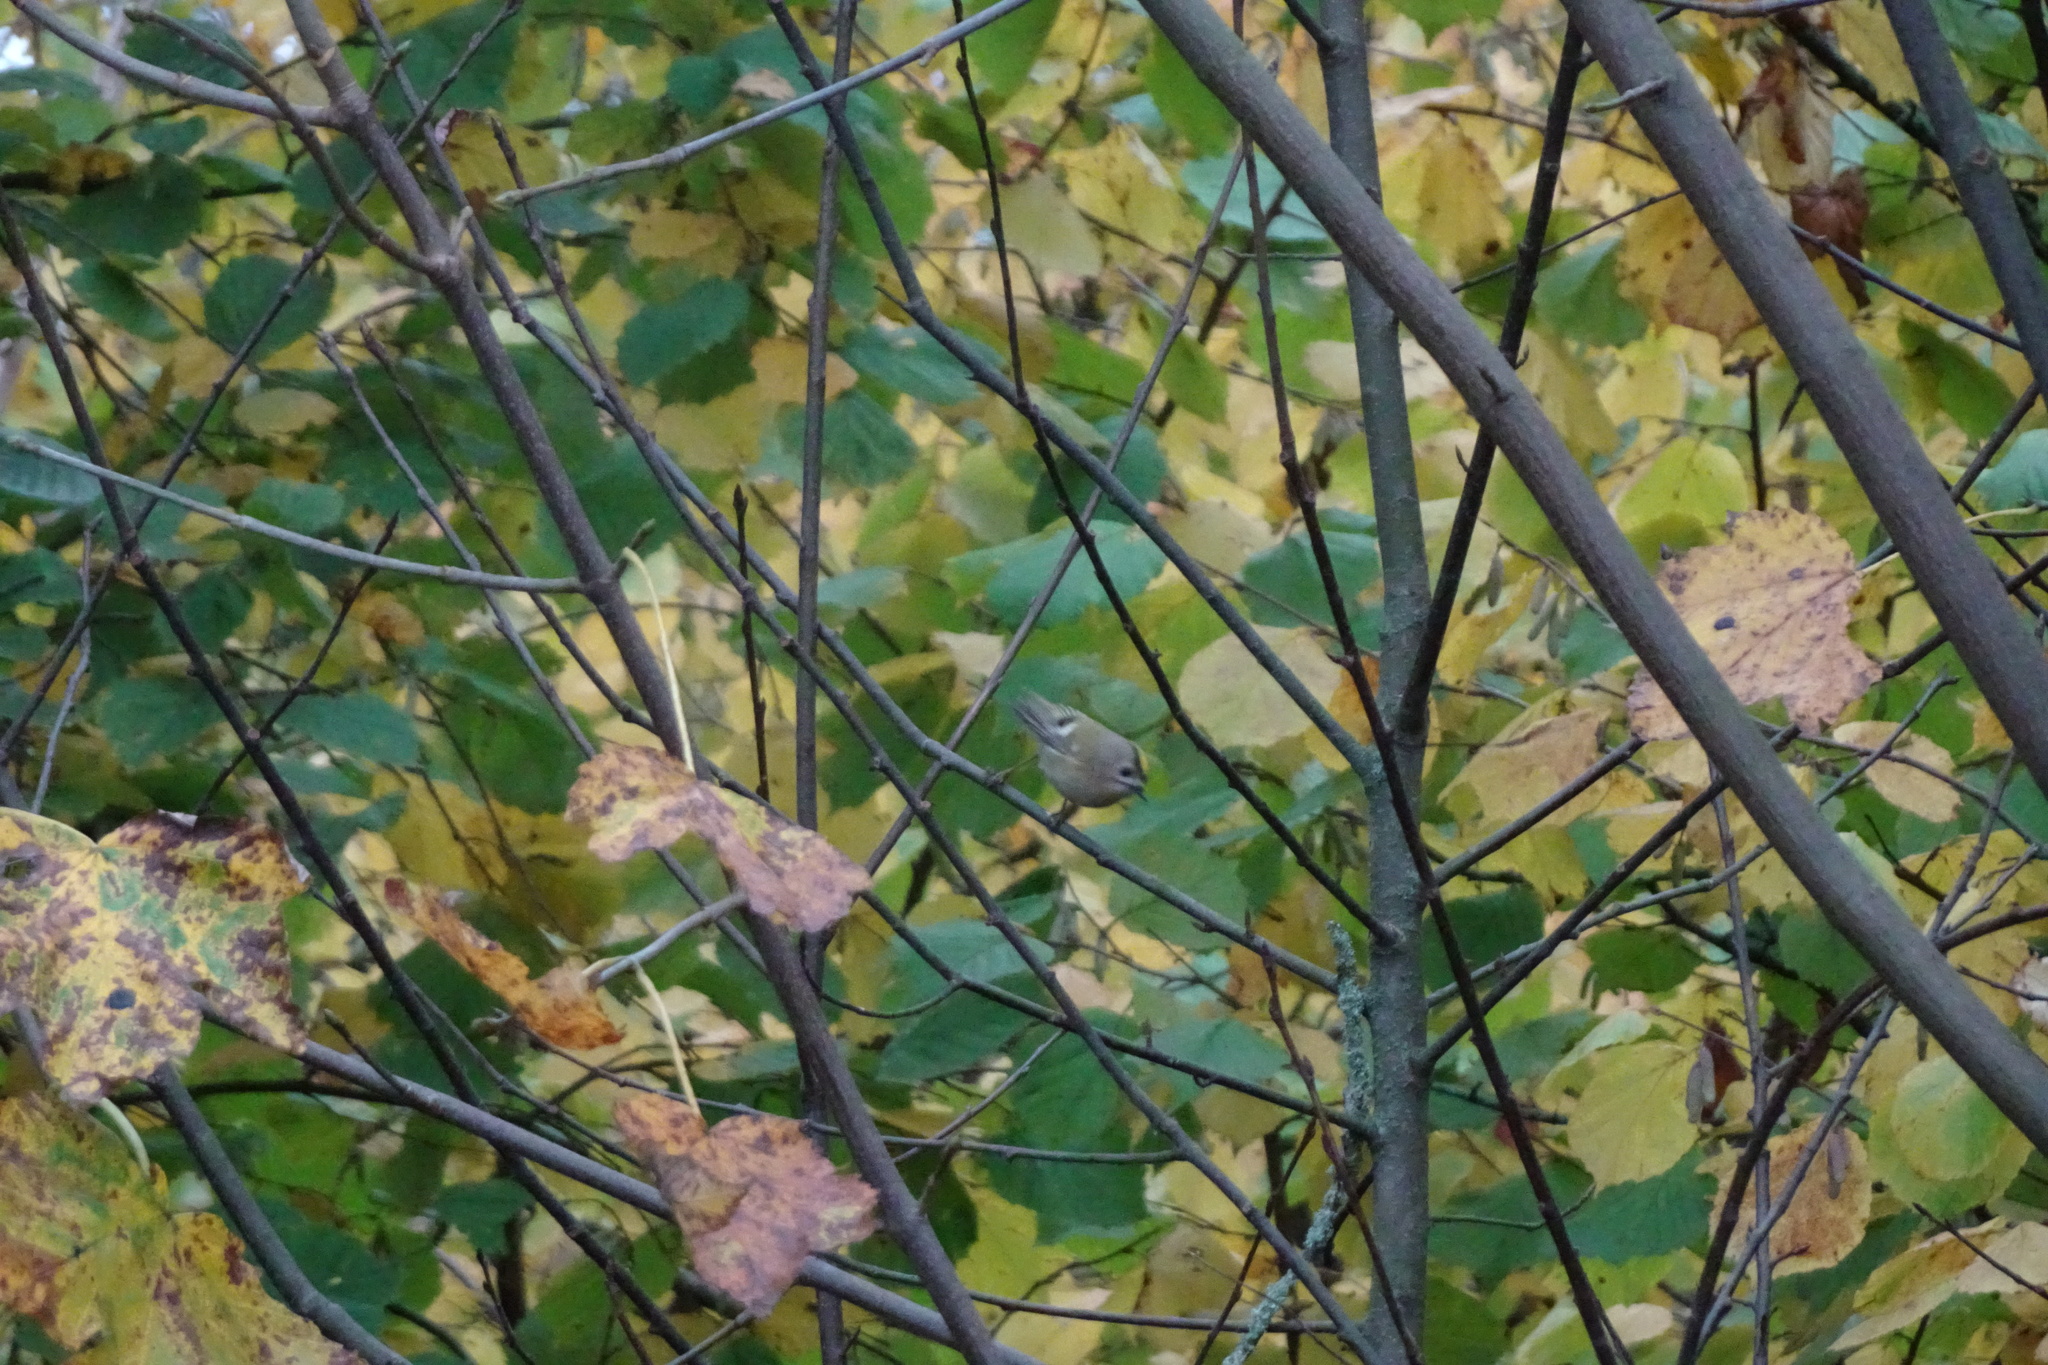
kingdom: Animalia
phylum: Chordata
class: Aves
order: Passeriformes
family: Regulidae
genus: Regulus
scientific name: Regulus regulus
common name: Goldcrest
